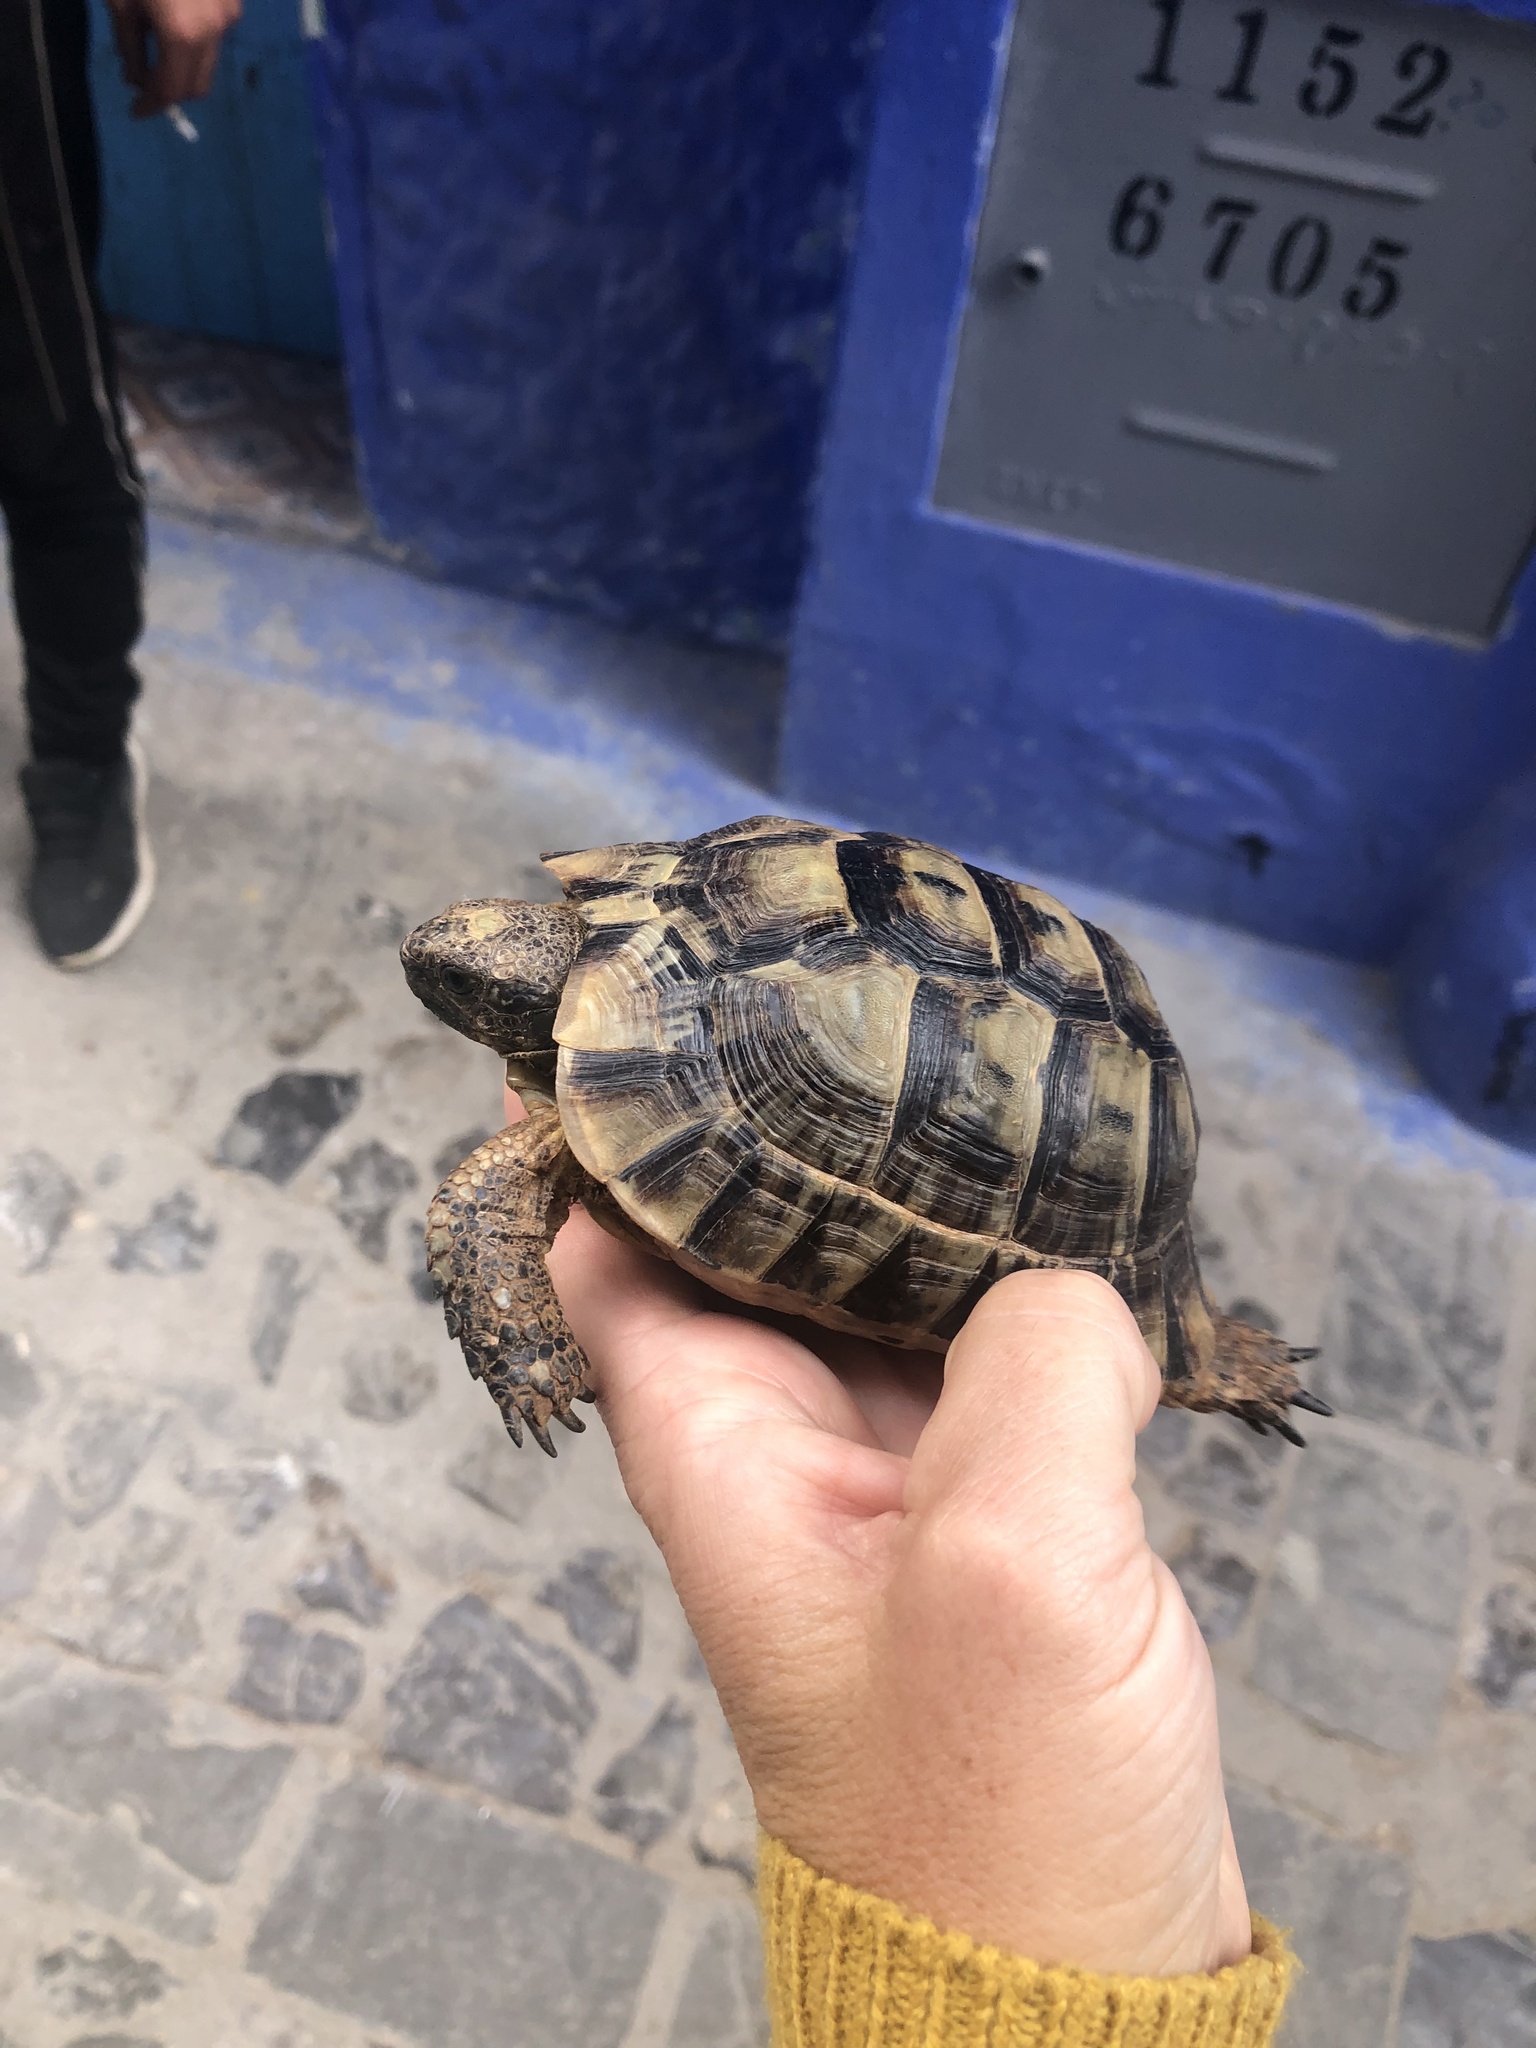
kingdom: Animalia
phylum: Chordata
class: Testudines
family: Testudinidae
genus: Testudo
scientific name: Testudo graeca
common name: Common tortoise
